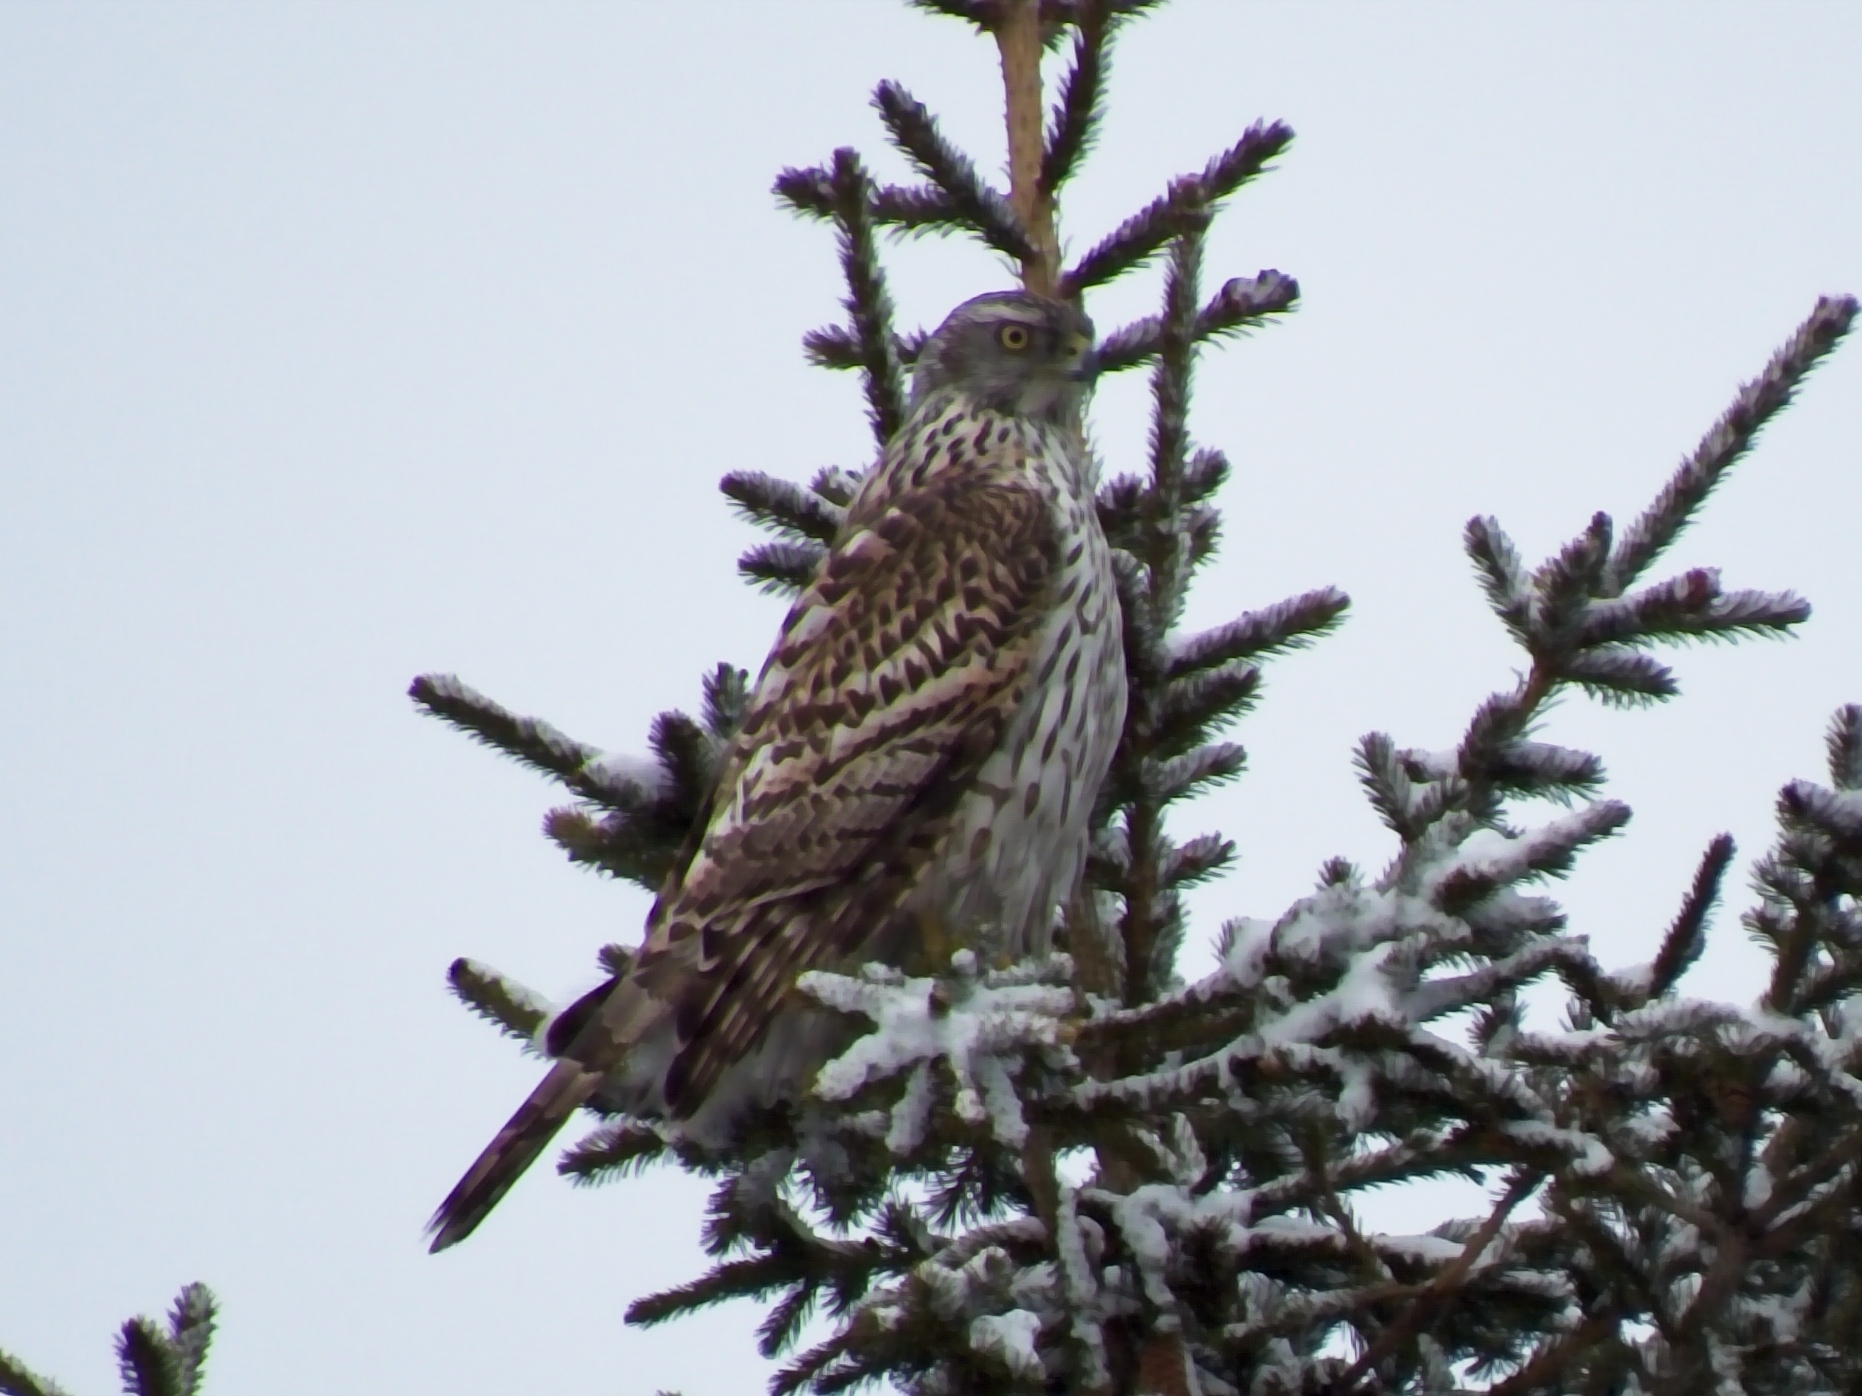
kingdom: Animalia
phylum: Chordata
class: Aves
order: Accipitriformes
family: Accipitridae
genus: Accipiter
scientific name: Accipiter gentilis
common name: Northern goshawk
